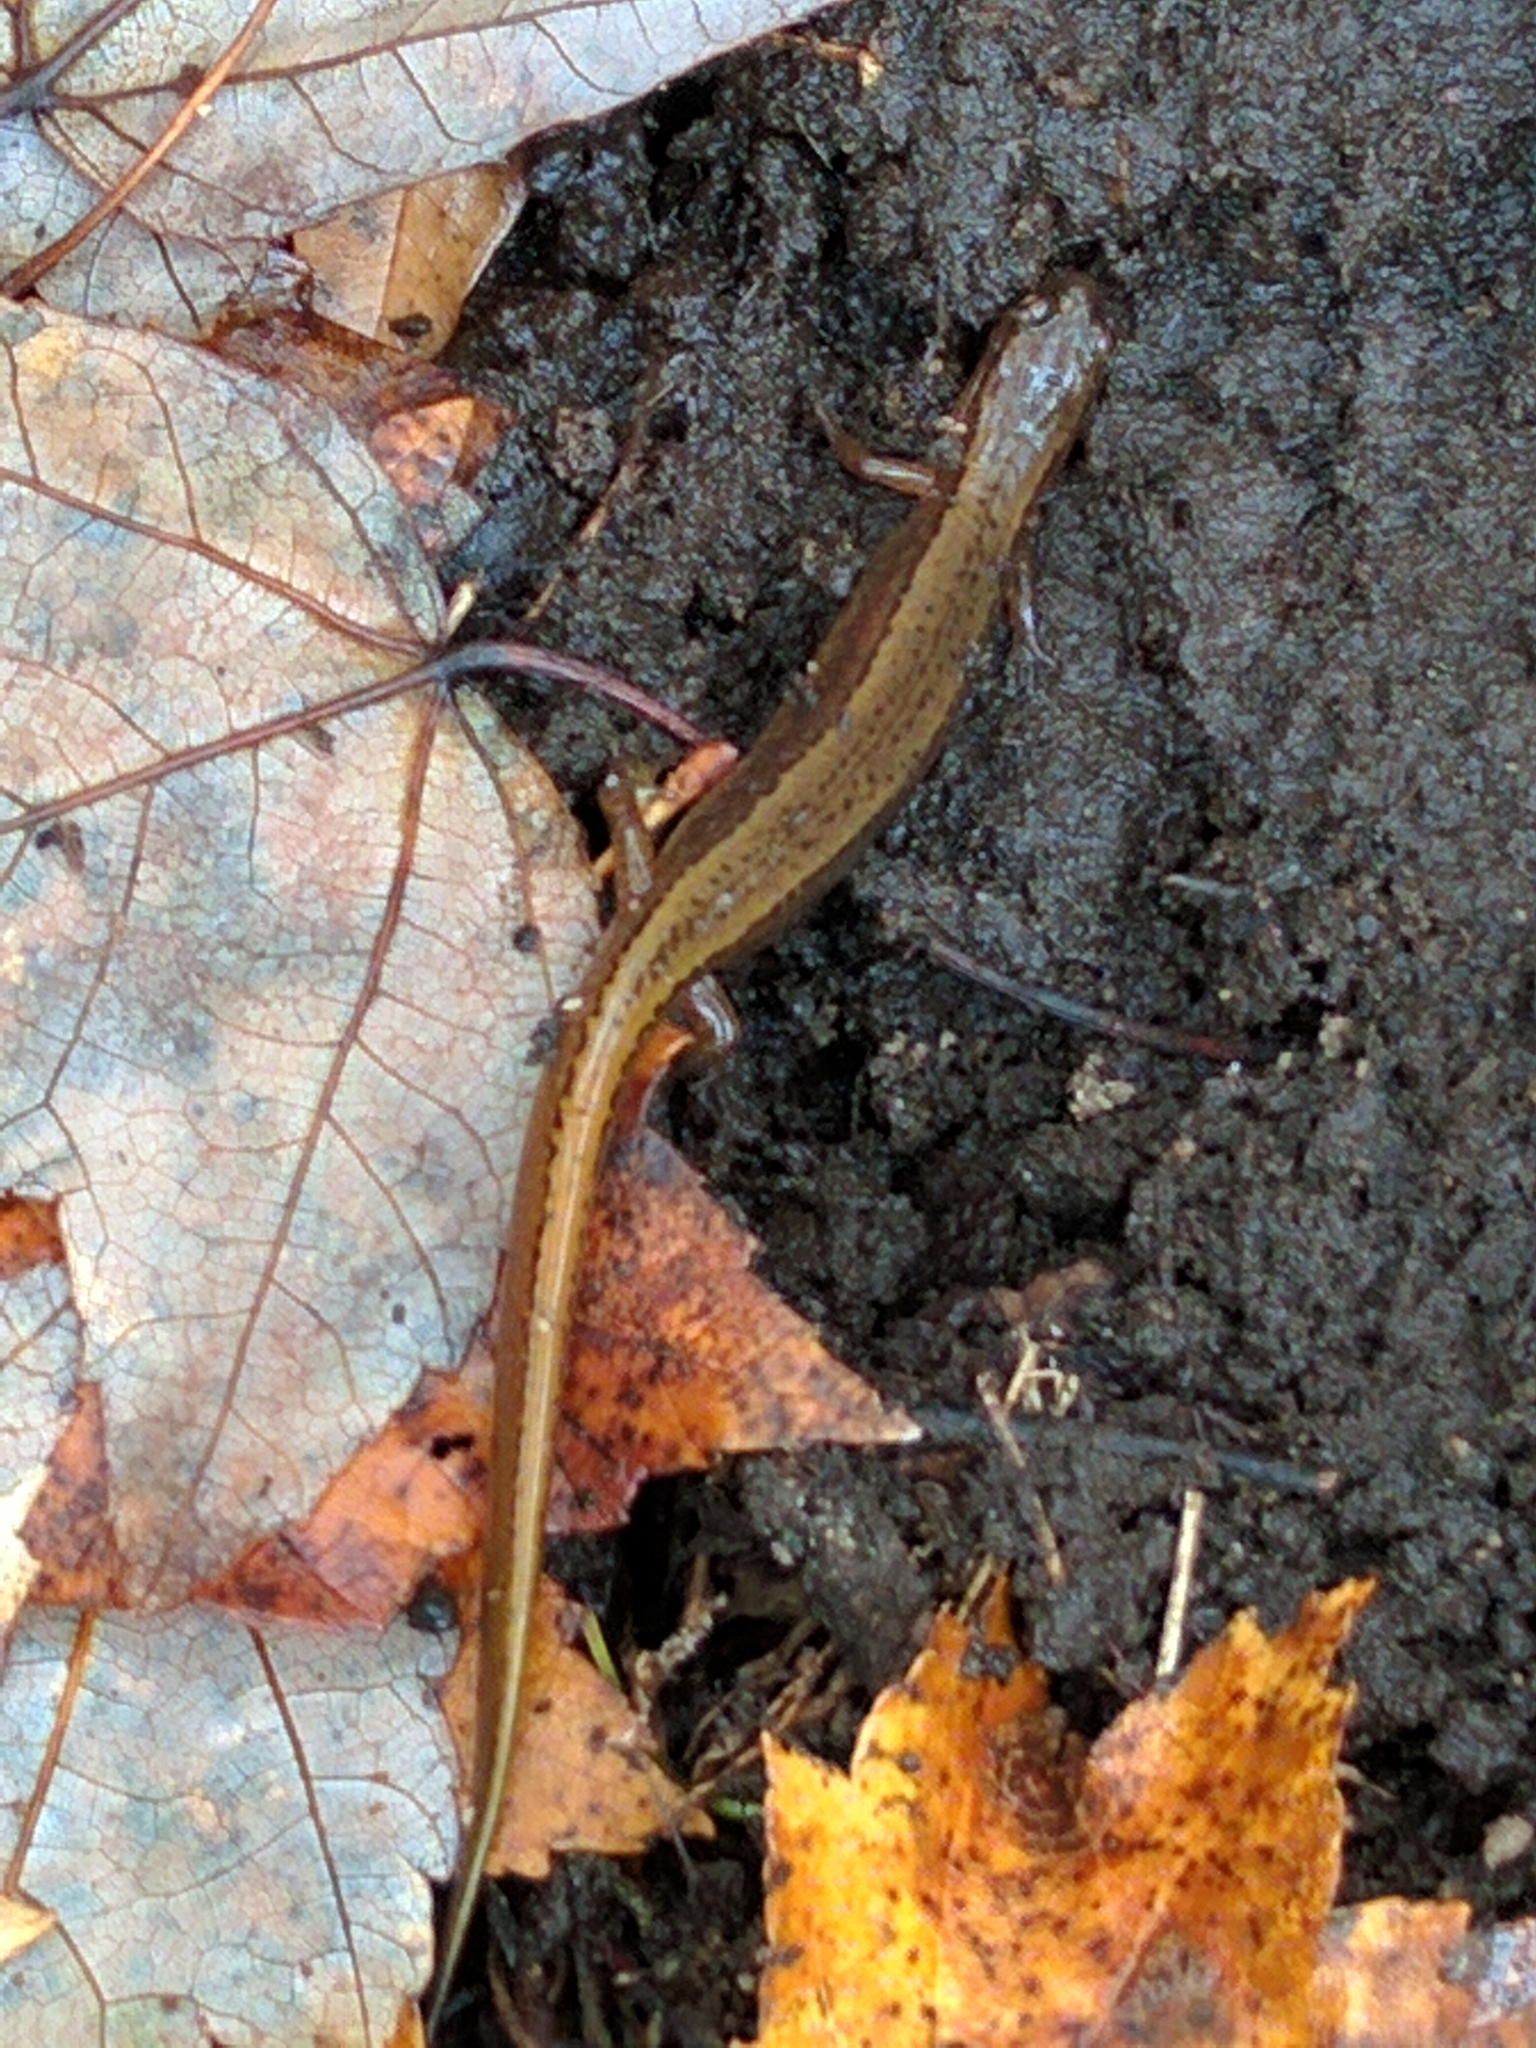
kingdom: Animalia
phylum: Chordata
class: Amphibia
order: Caudata
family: Plethodontidae
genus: Eurycea
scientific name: Eurycea bislineata
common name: Northern two-lined salamander
